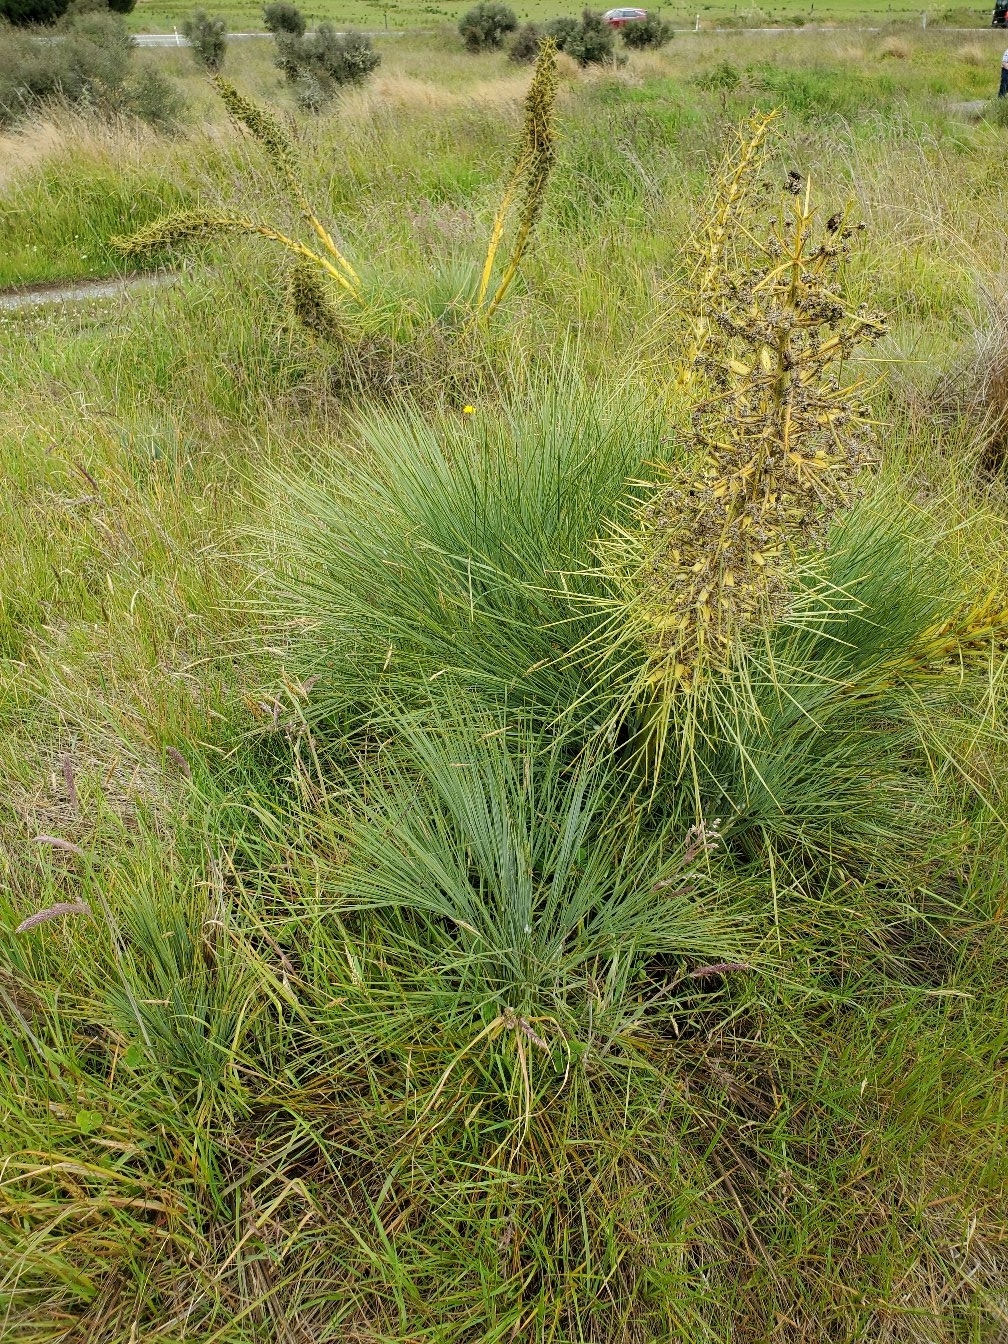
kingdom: Plantae
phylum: Tracheophyta
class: Magnoliopsida
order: Apiales
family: Apiaceae
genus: Aciphylla
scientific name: Aciphylla glaucescens
